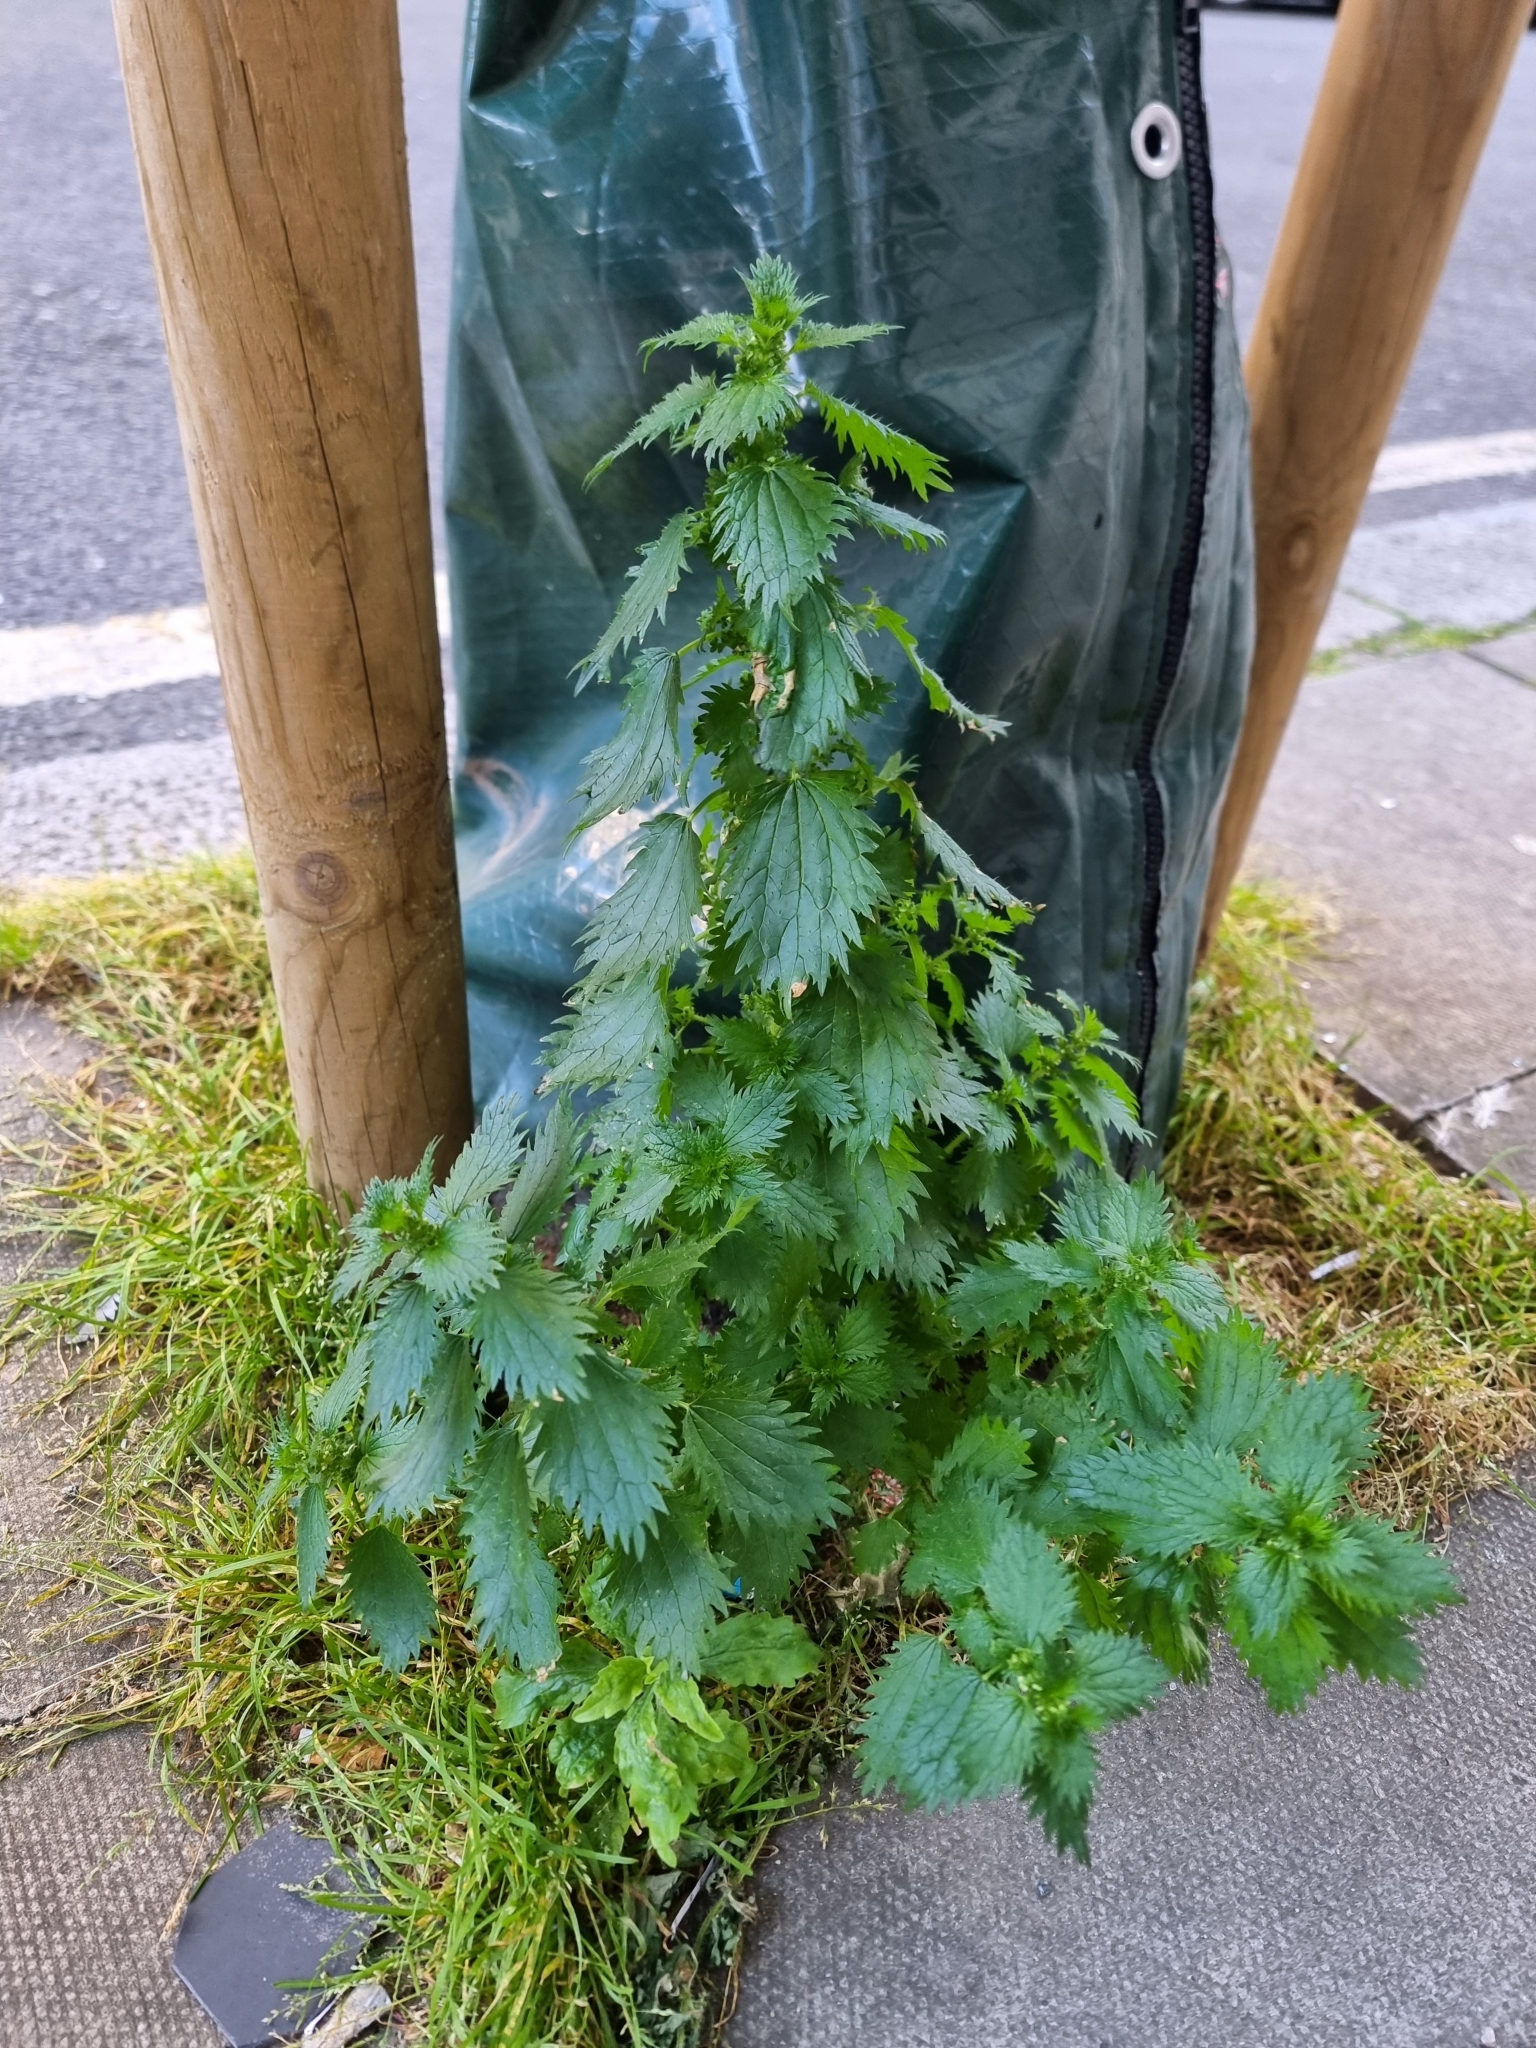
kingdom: Plantae
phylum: Tracheophyta
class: Magnoliopsida
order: Rosales
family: Urticaceae
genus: Urtica
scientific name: Urtica urens
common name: Dwarf nettle
